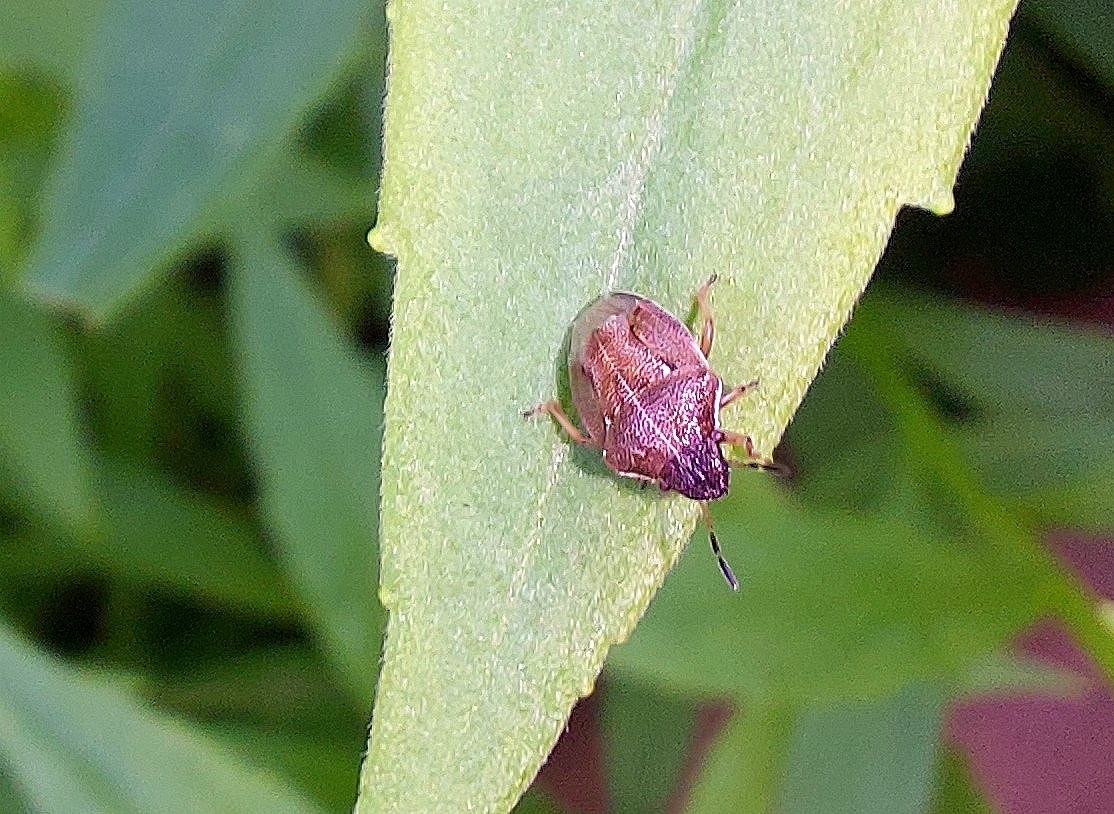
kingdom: Animalia
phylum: Arthropoda
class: Insecta
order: Hemiptera
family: Pentatomidae
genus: Neottiglossa
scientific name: Neottiglossa pusilla
